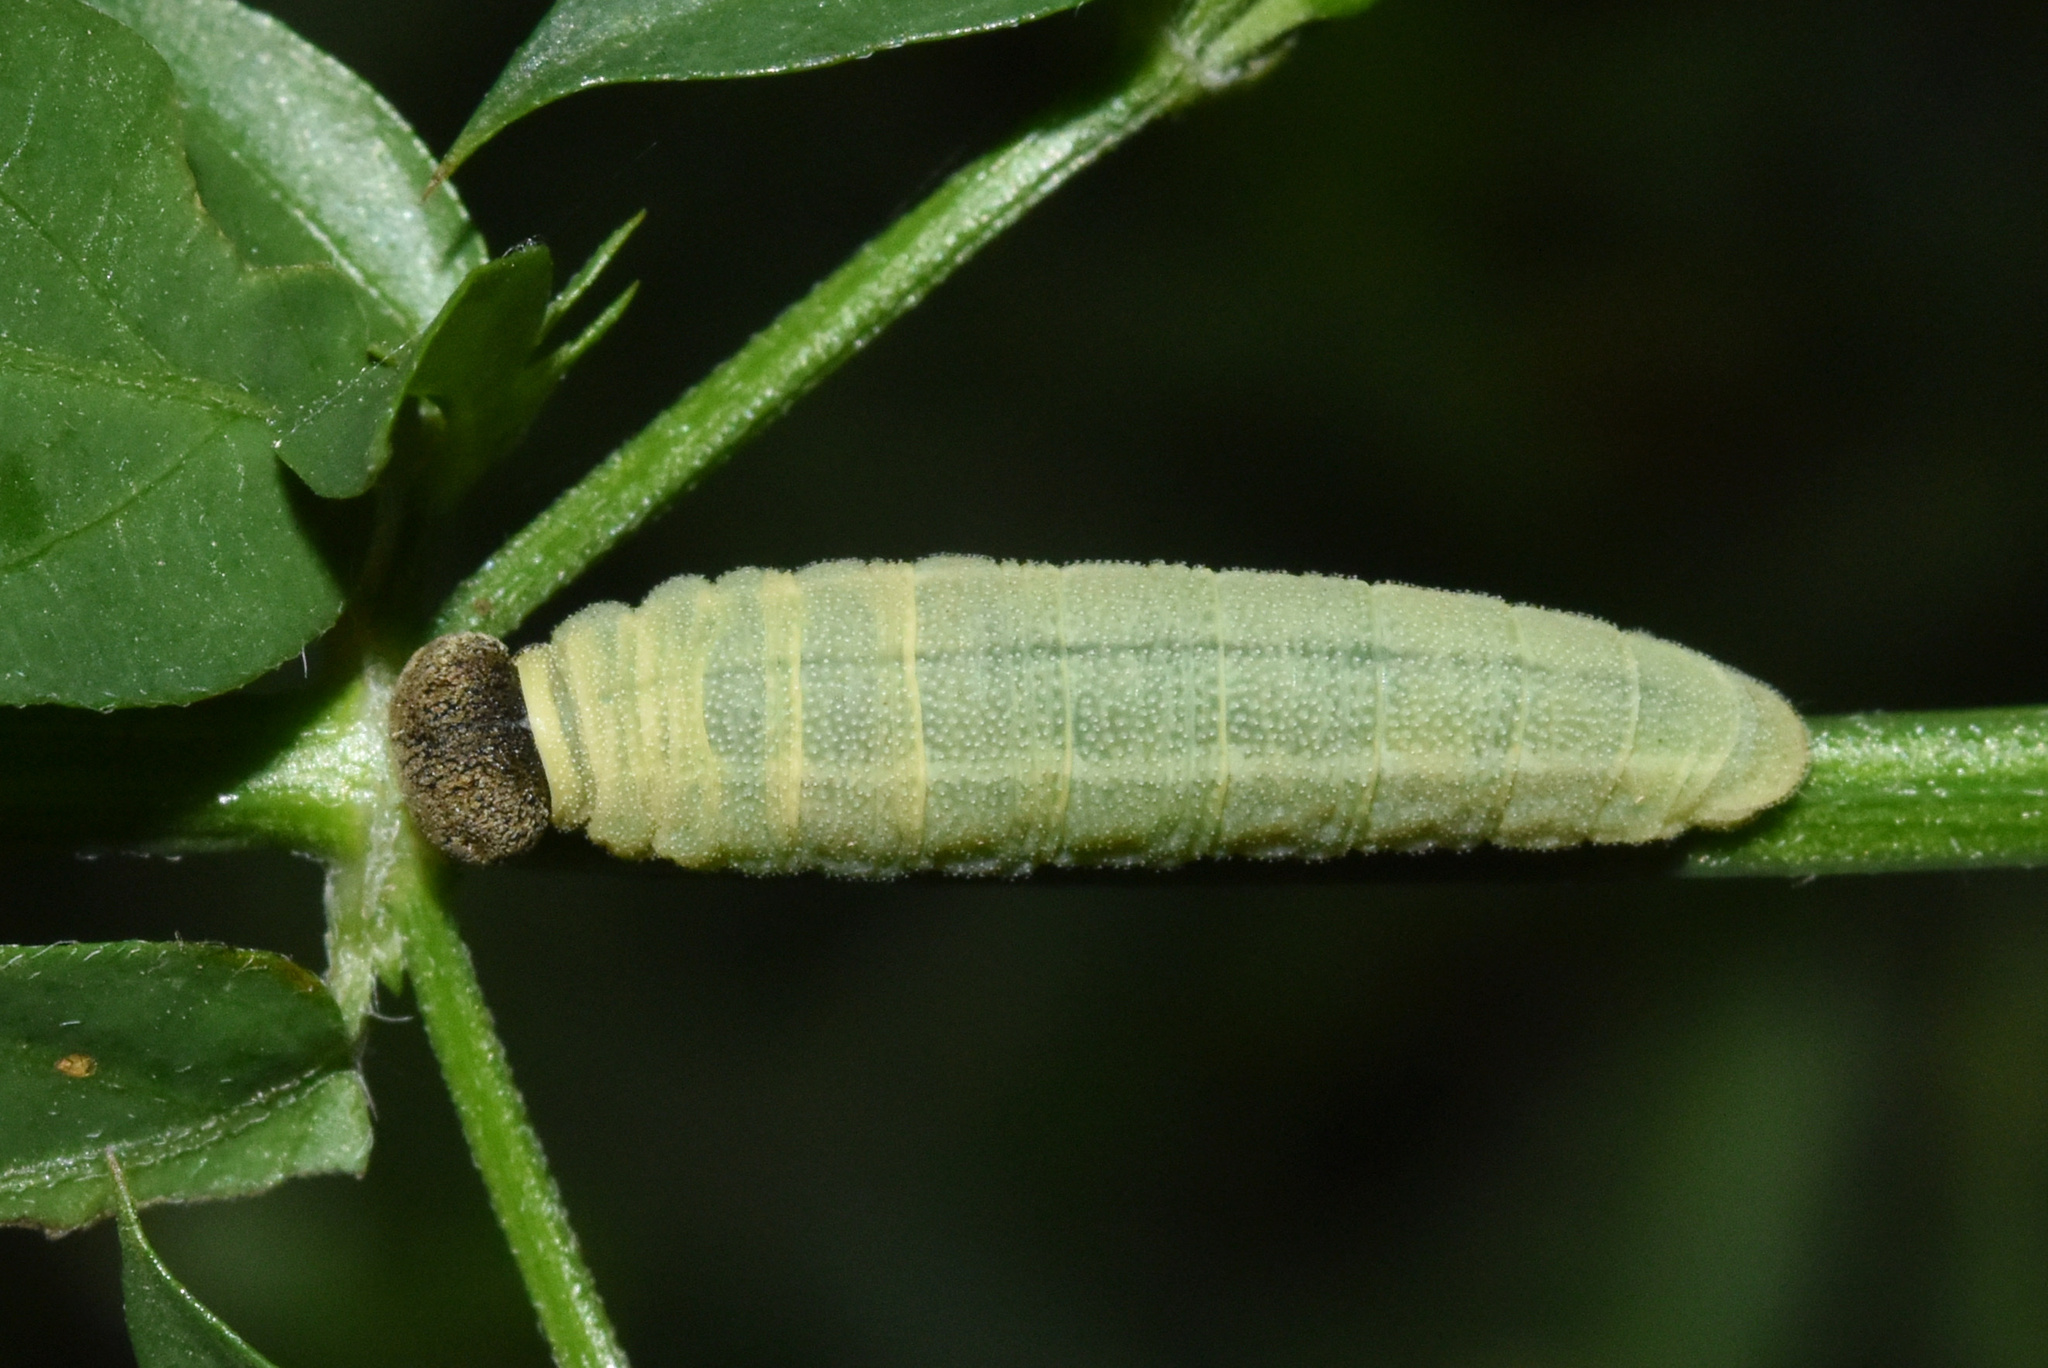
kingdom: Animalia
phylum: Arthropoda
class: Insecta
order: Lepidoptera
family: Hesperiidae
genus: Sarangesa
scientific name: Sarangesa phidyle
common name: Small elfin
